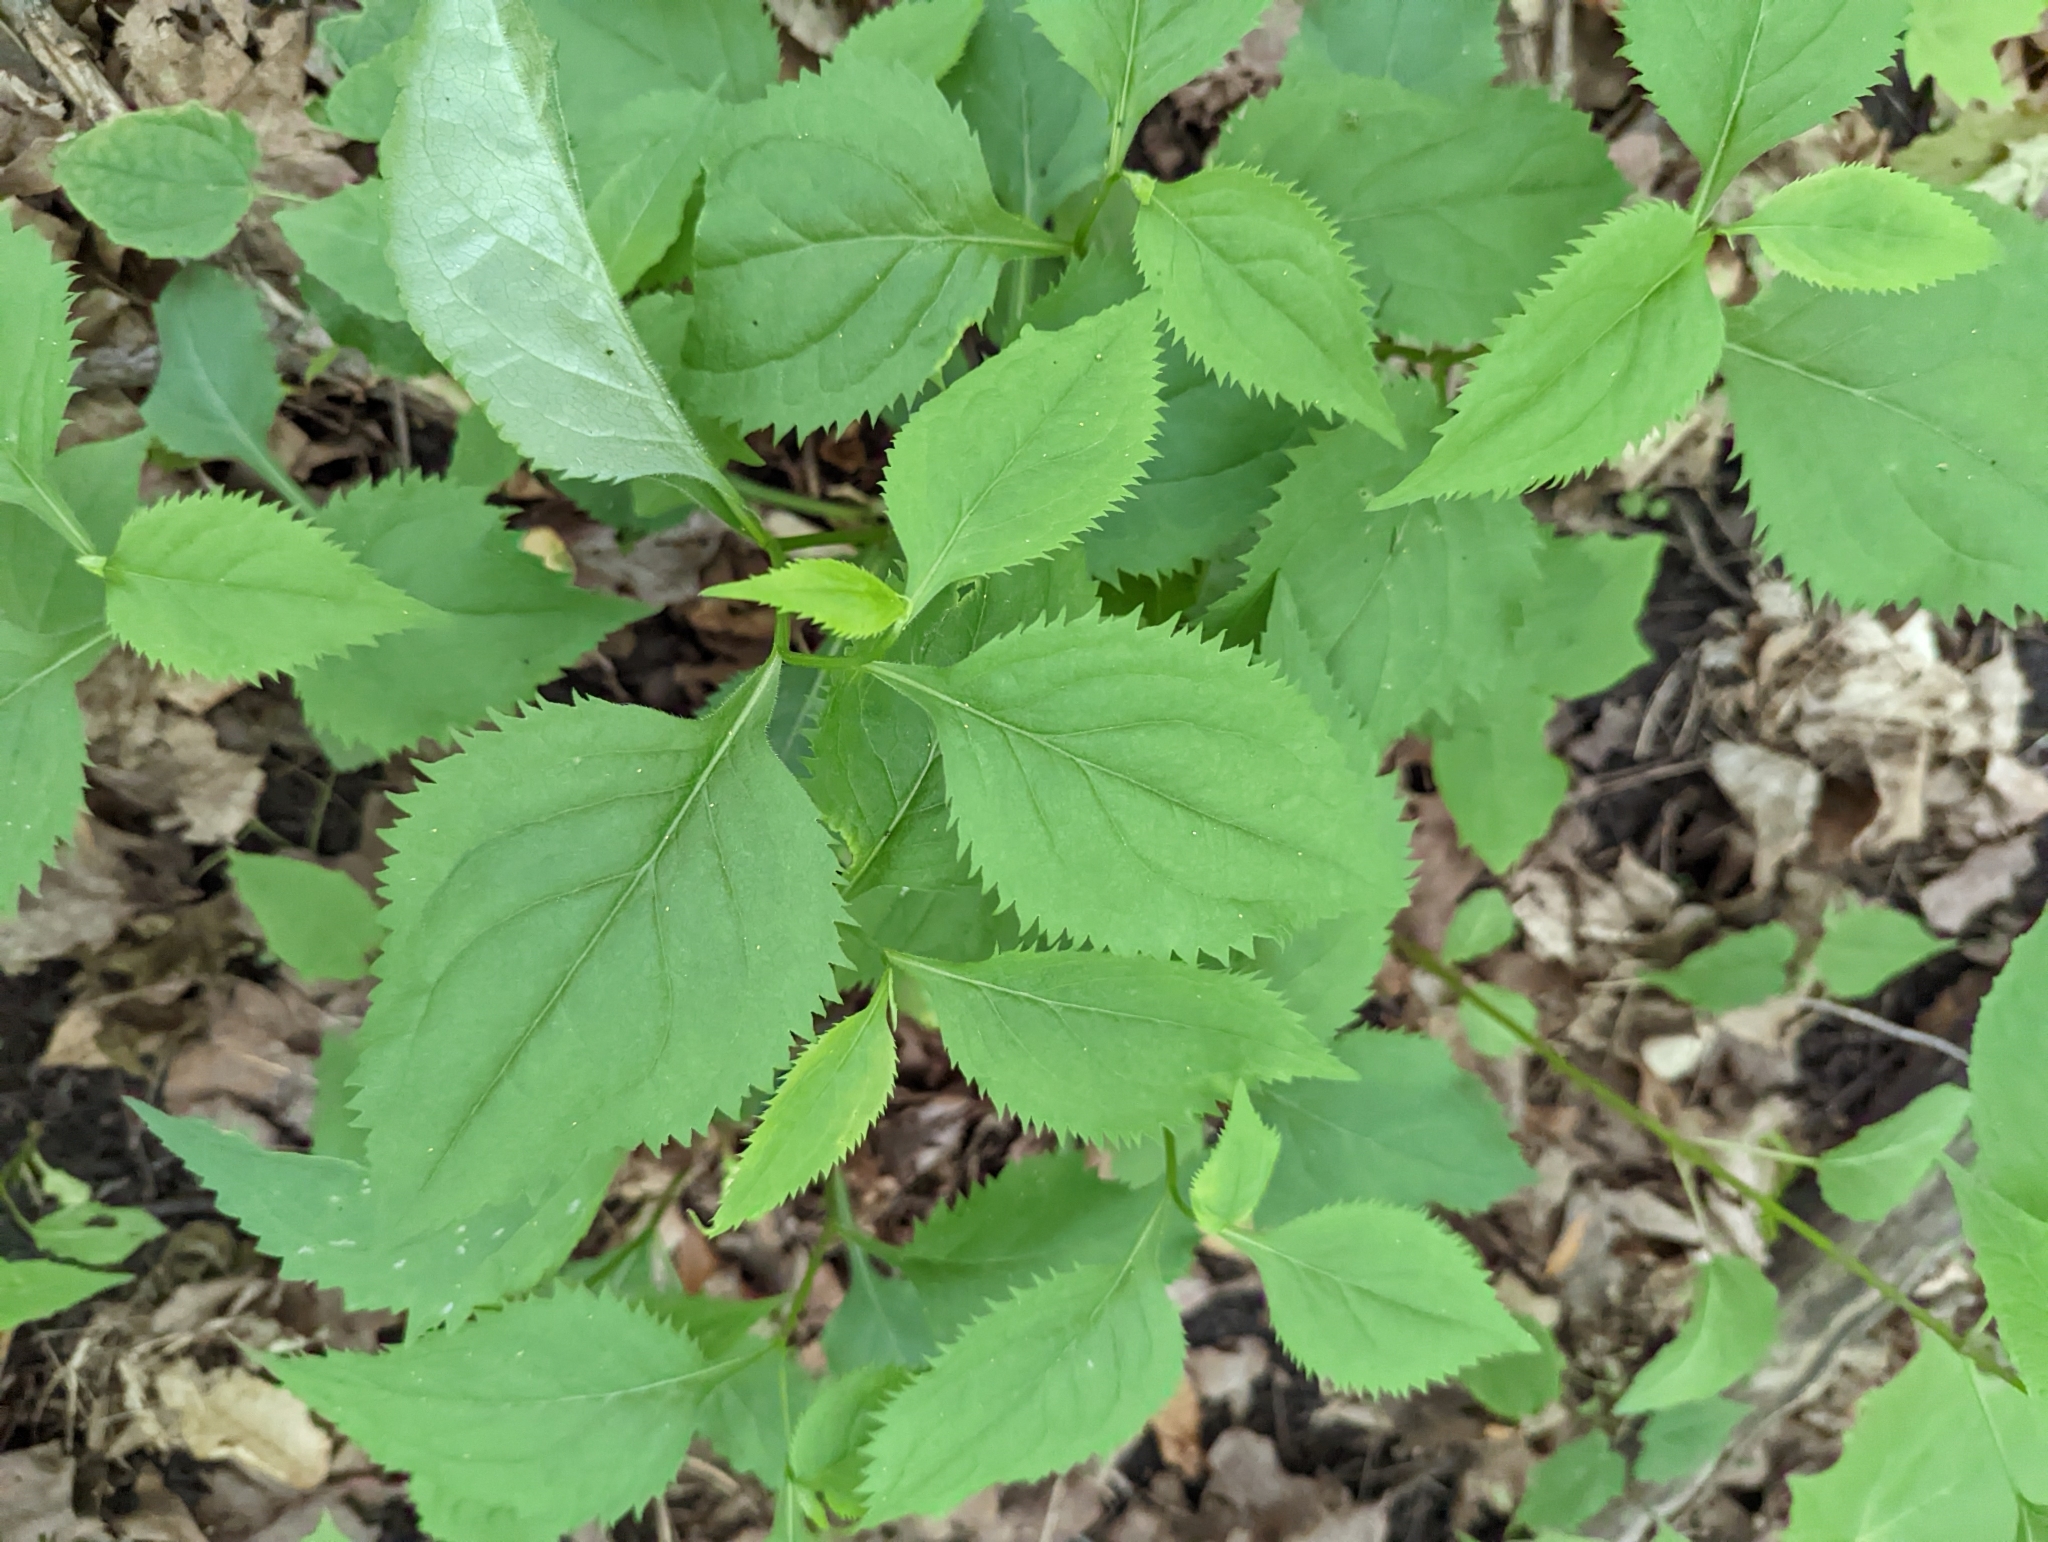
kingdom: Plantae
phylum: Tracheophyta
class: Magnoliopsida
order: Asterales
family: Asteraceae
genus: Solidago
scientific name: Solidago flexicaulis
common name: Zig-zag goldenrod
